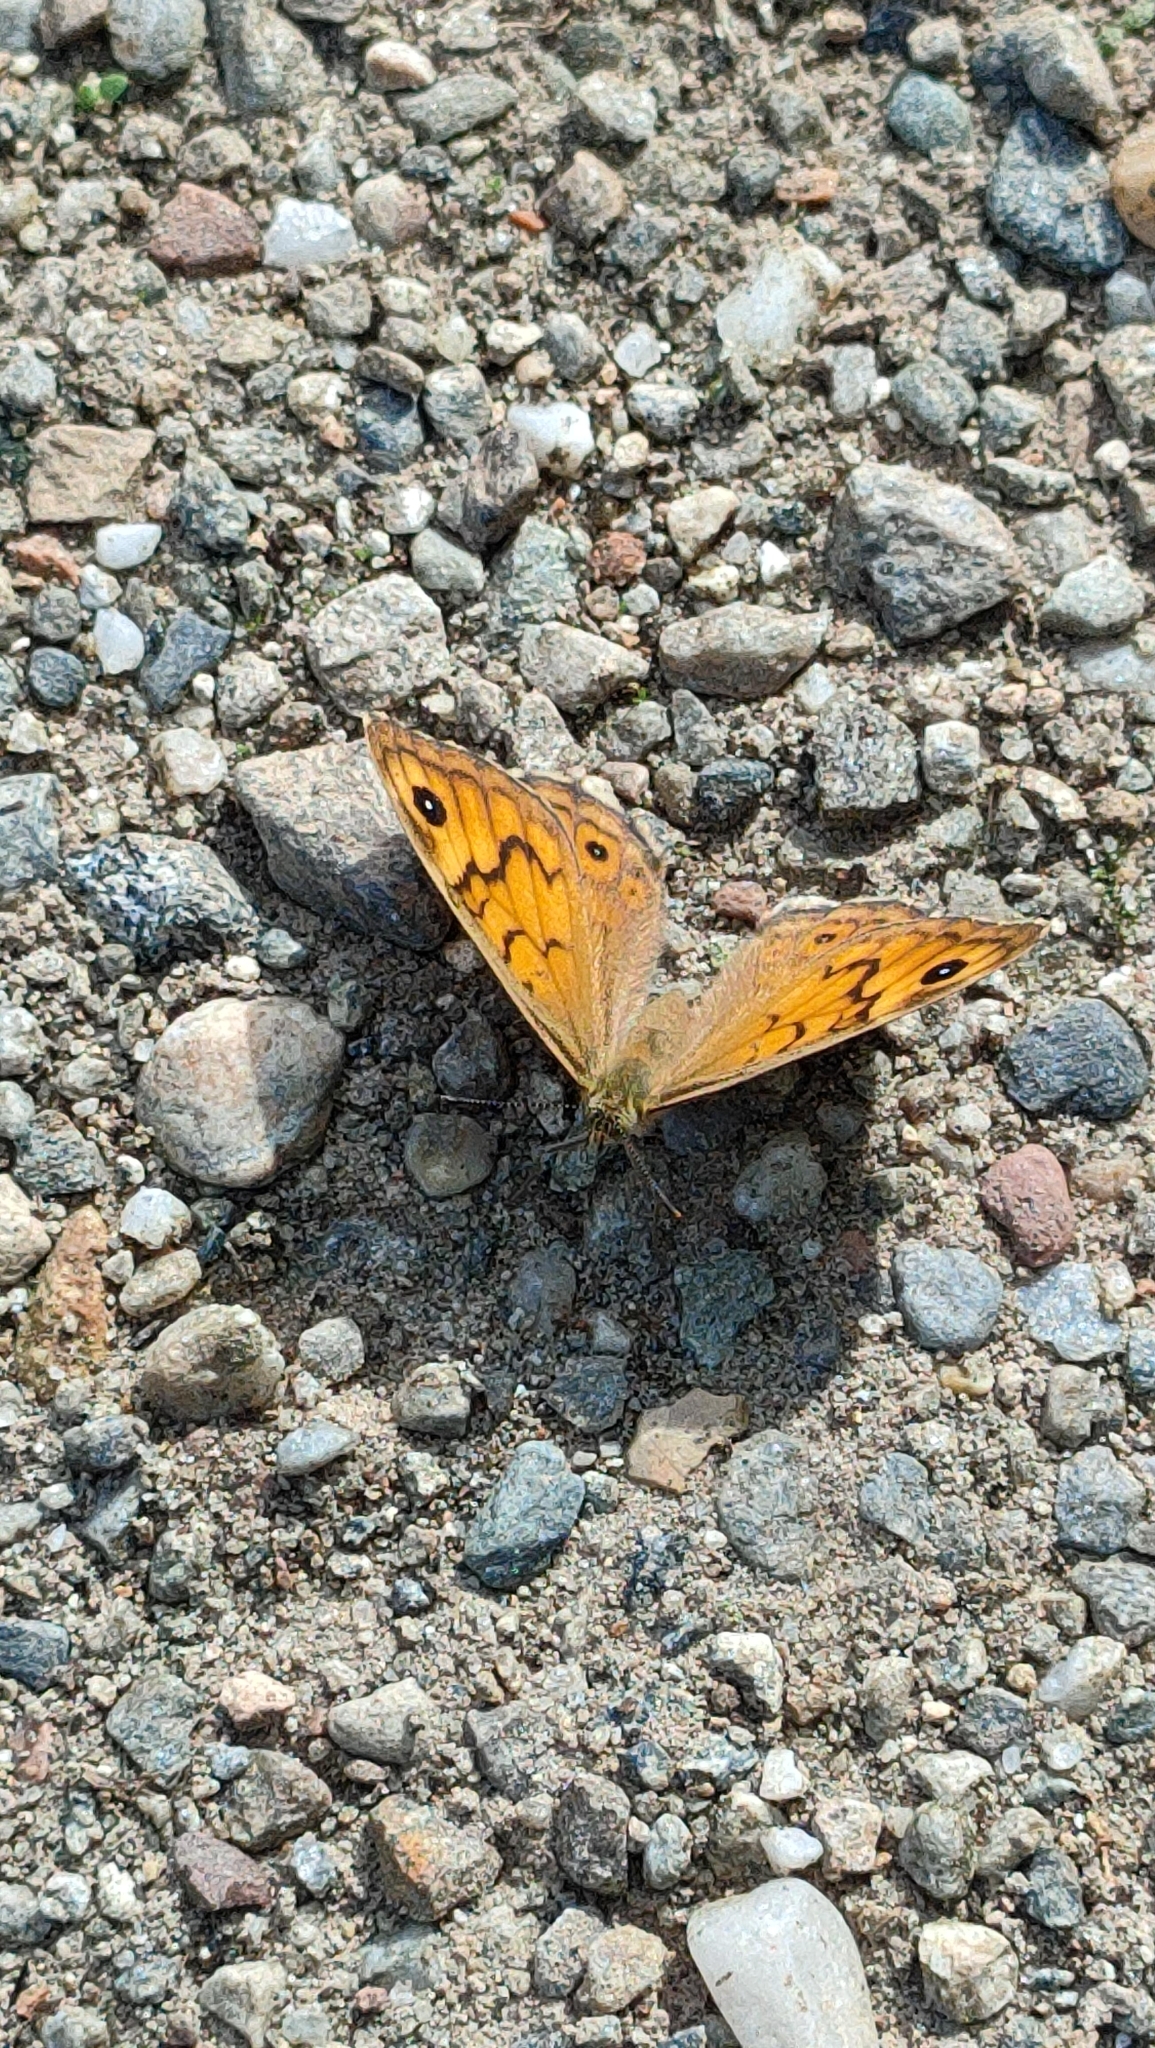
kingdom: Animalia
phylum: Arthropoda
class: Insecta
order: Lepidoptera
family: Nymphalidae
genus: Pararge
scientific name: Pararge Lasiommata megera
